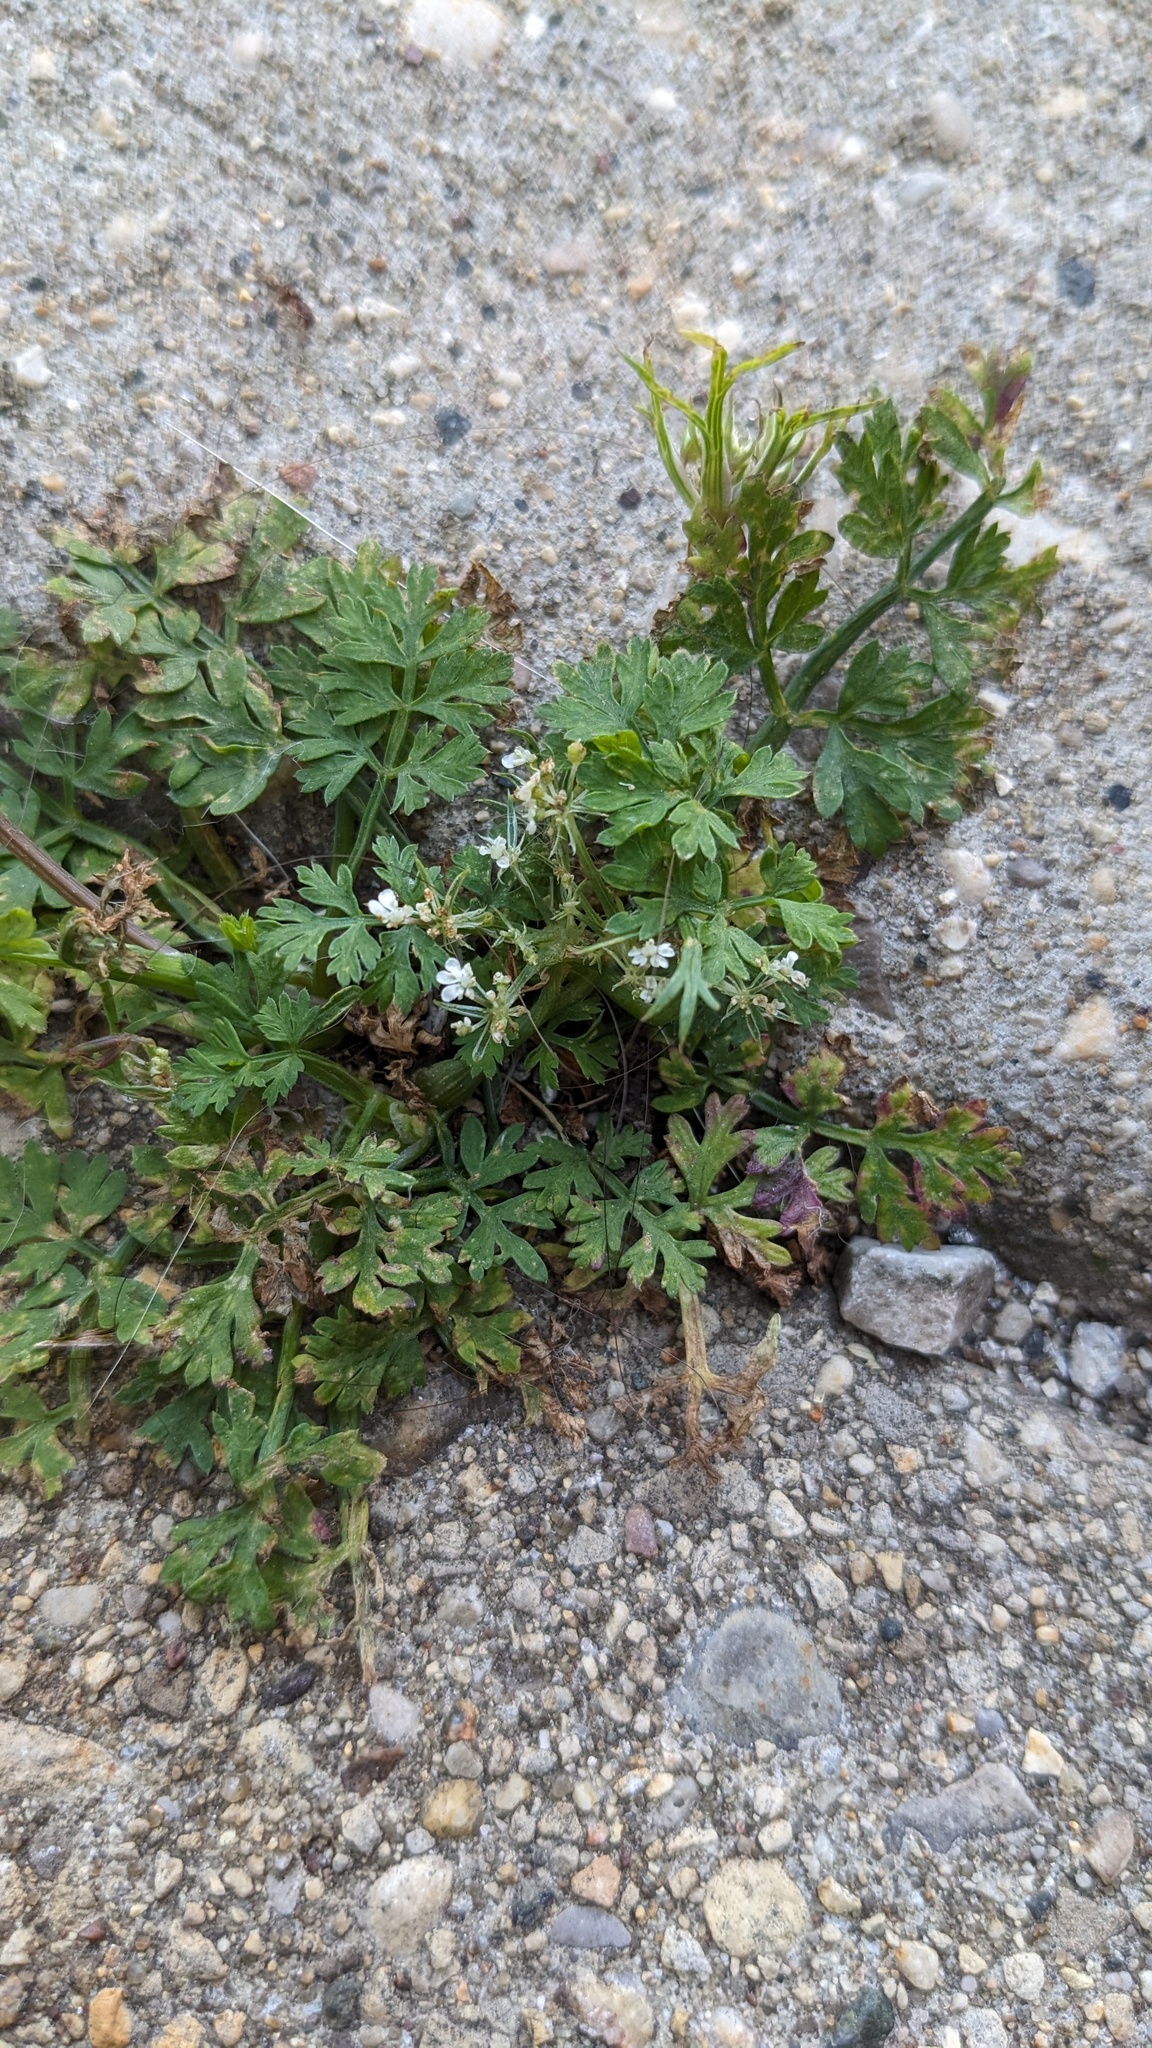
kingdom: Plantae
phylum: Tracheophyta
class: Magnoliopsida
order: Apiales
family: Apiaceae
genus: Aethusa
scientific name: Aethusa cynapium
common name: Fool's parsley
